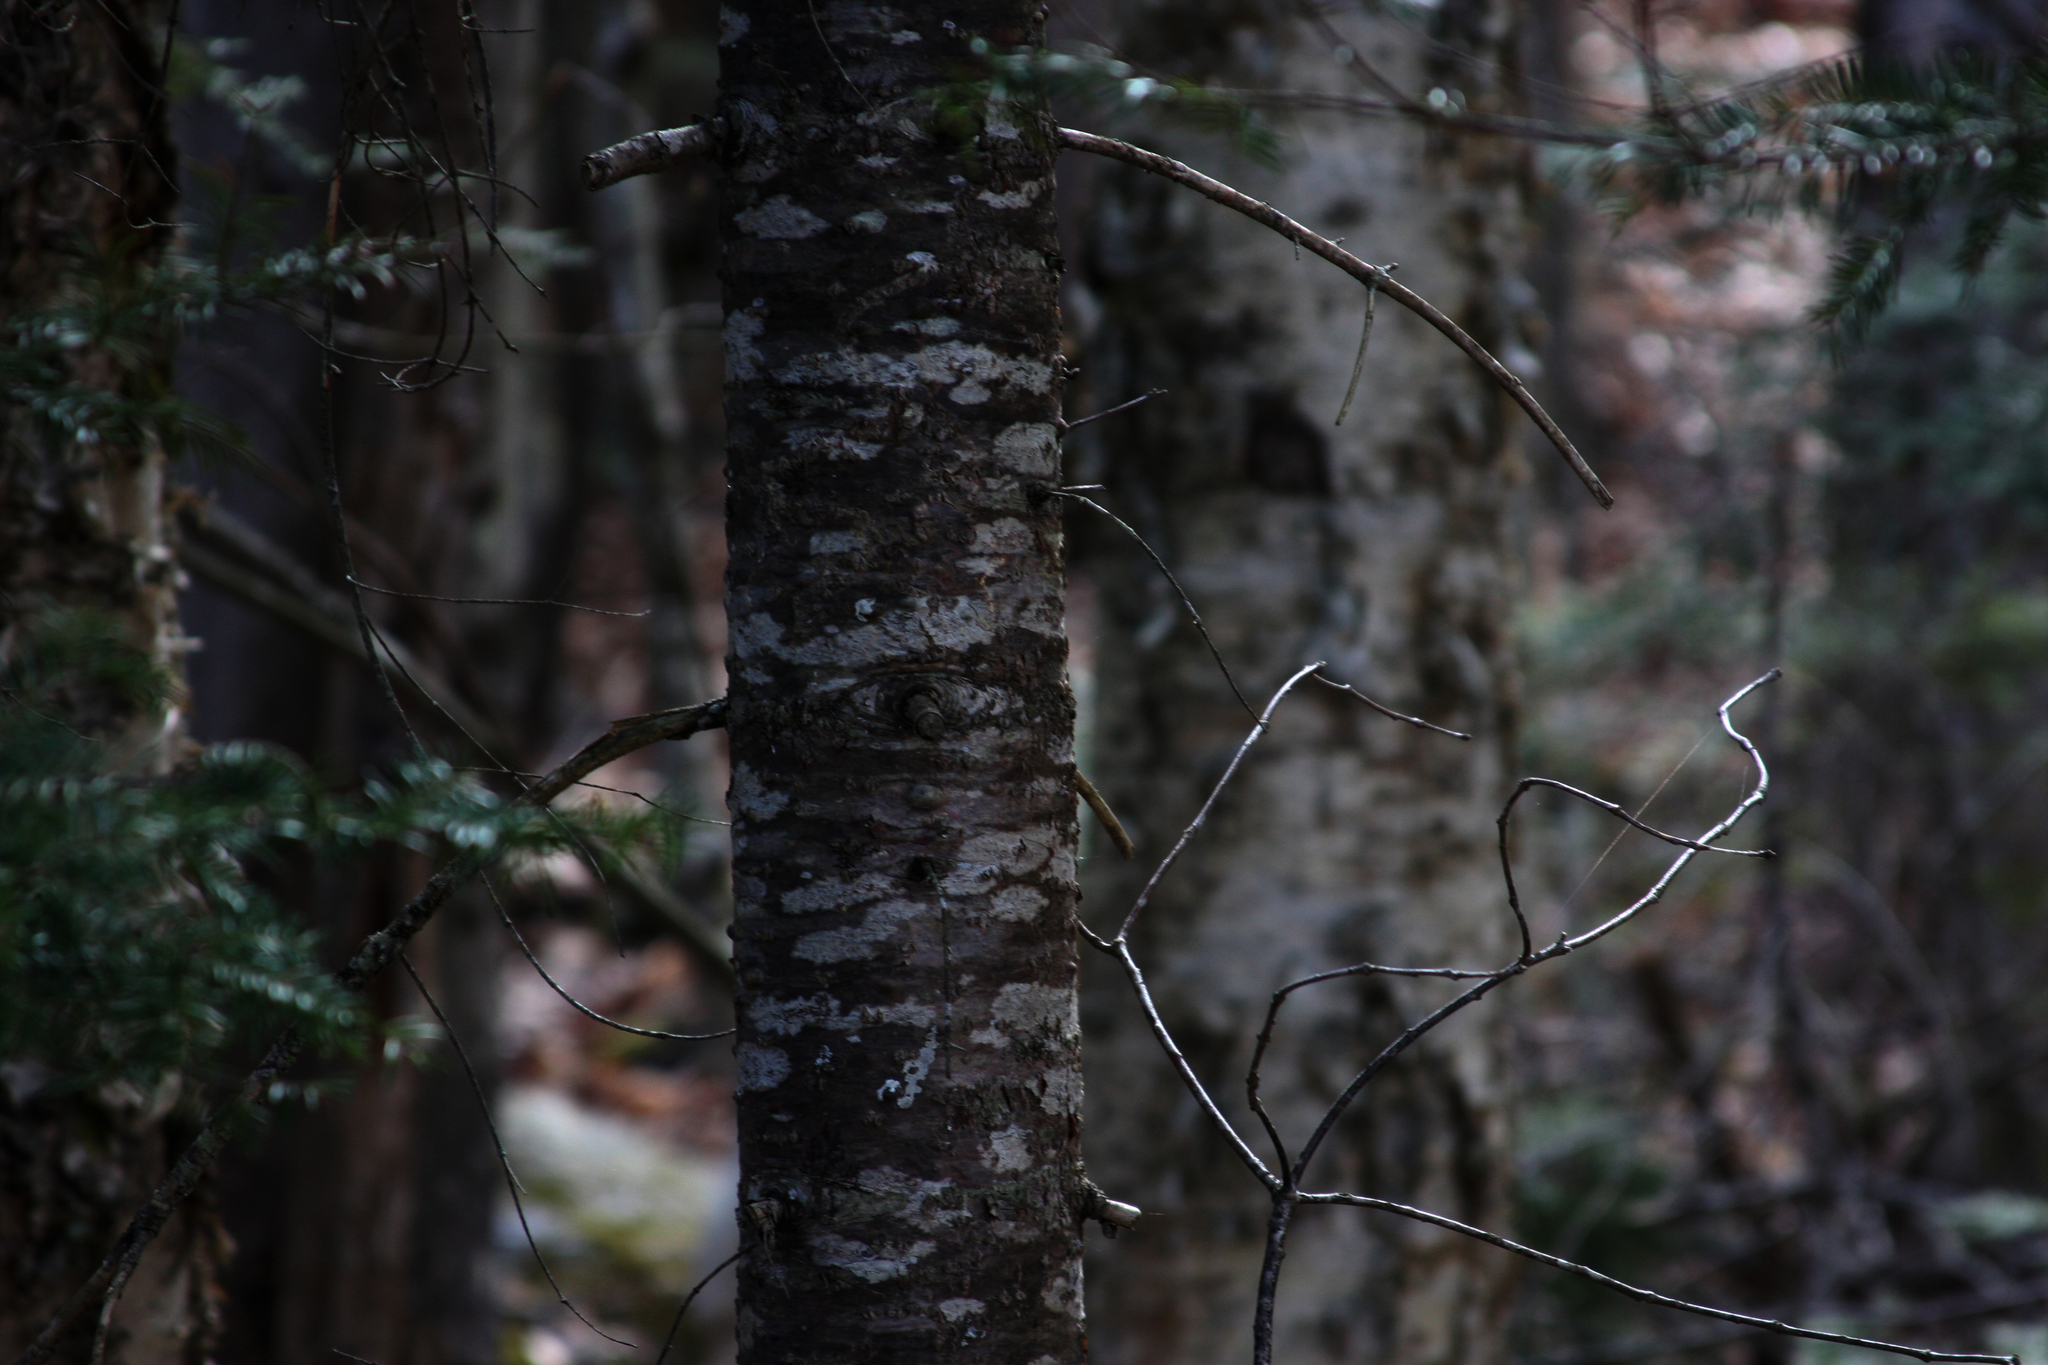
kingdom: Plantae
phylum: Tracheophyta
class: Pinopsida
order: Pinales
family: Pinaceae
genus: Abies
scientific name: Abies balsamea
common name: Balsam fir
